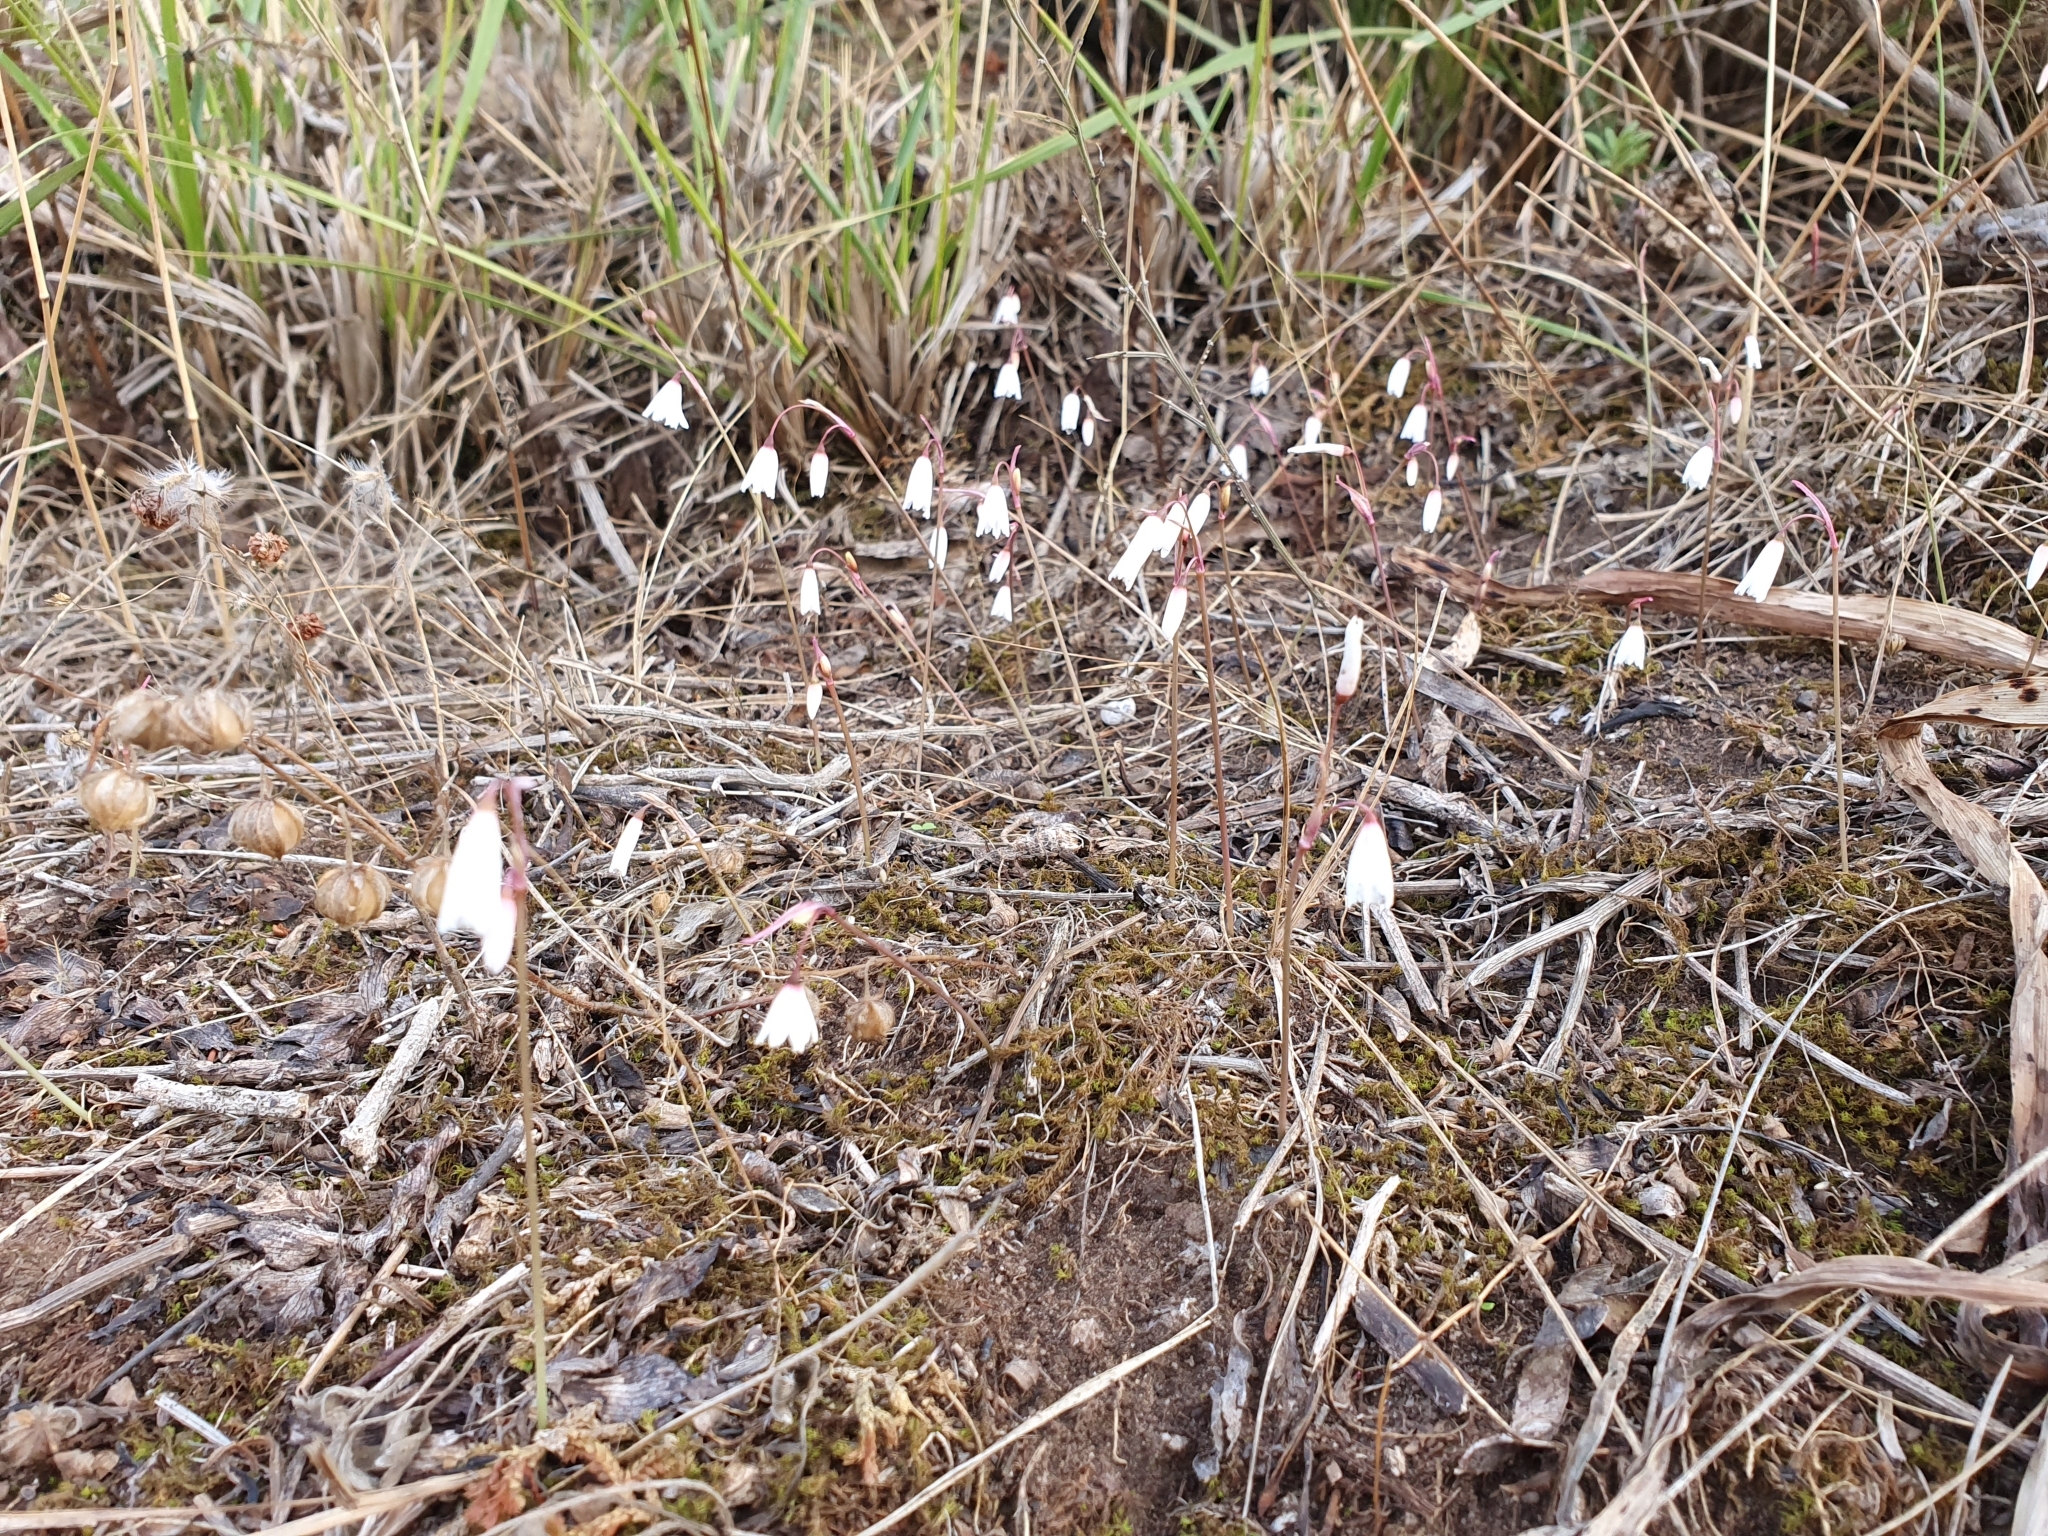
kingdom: Plantae
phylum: Tracheophyta
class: Liliopsida
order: Asparagales
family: Amaryllidaceae
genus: Acis
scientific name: Acis autumnalis
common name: Autumn snowflake
